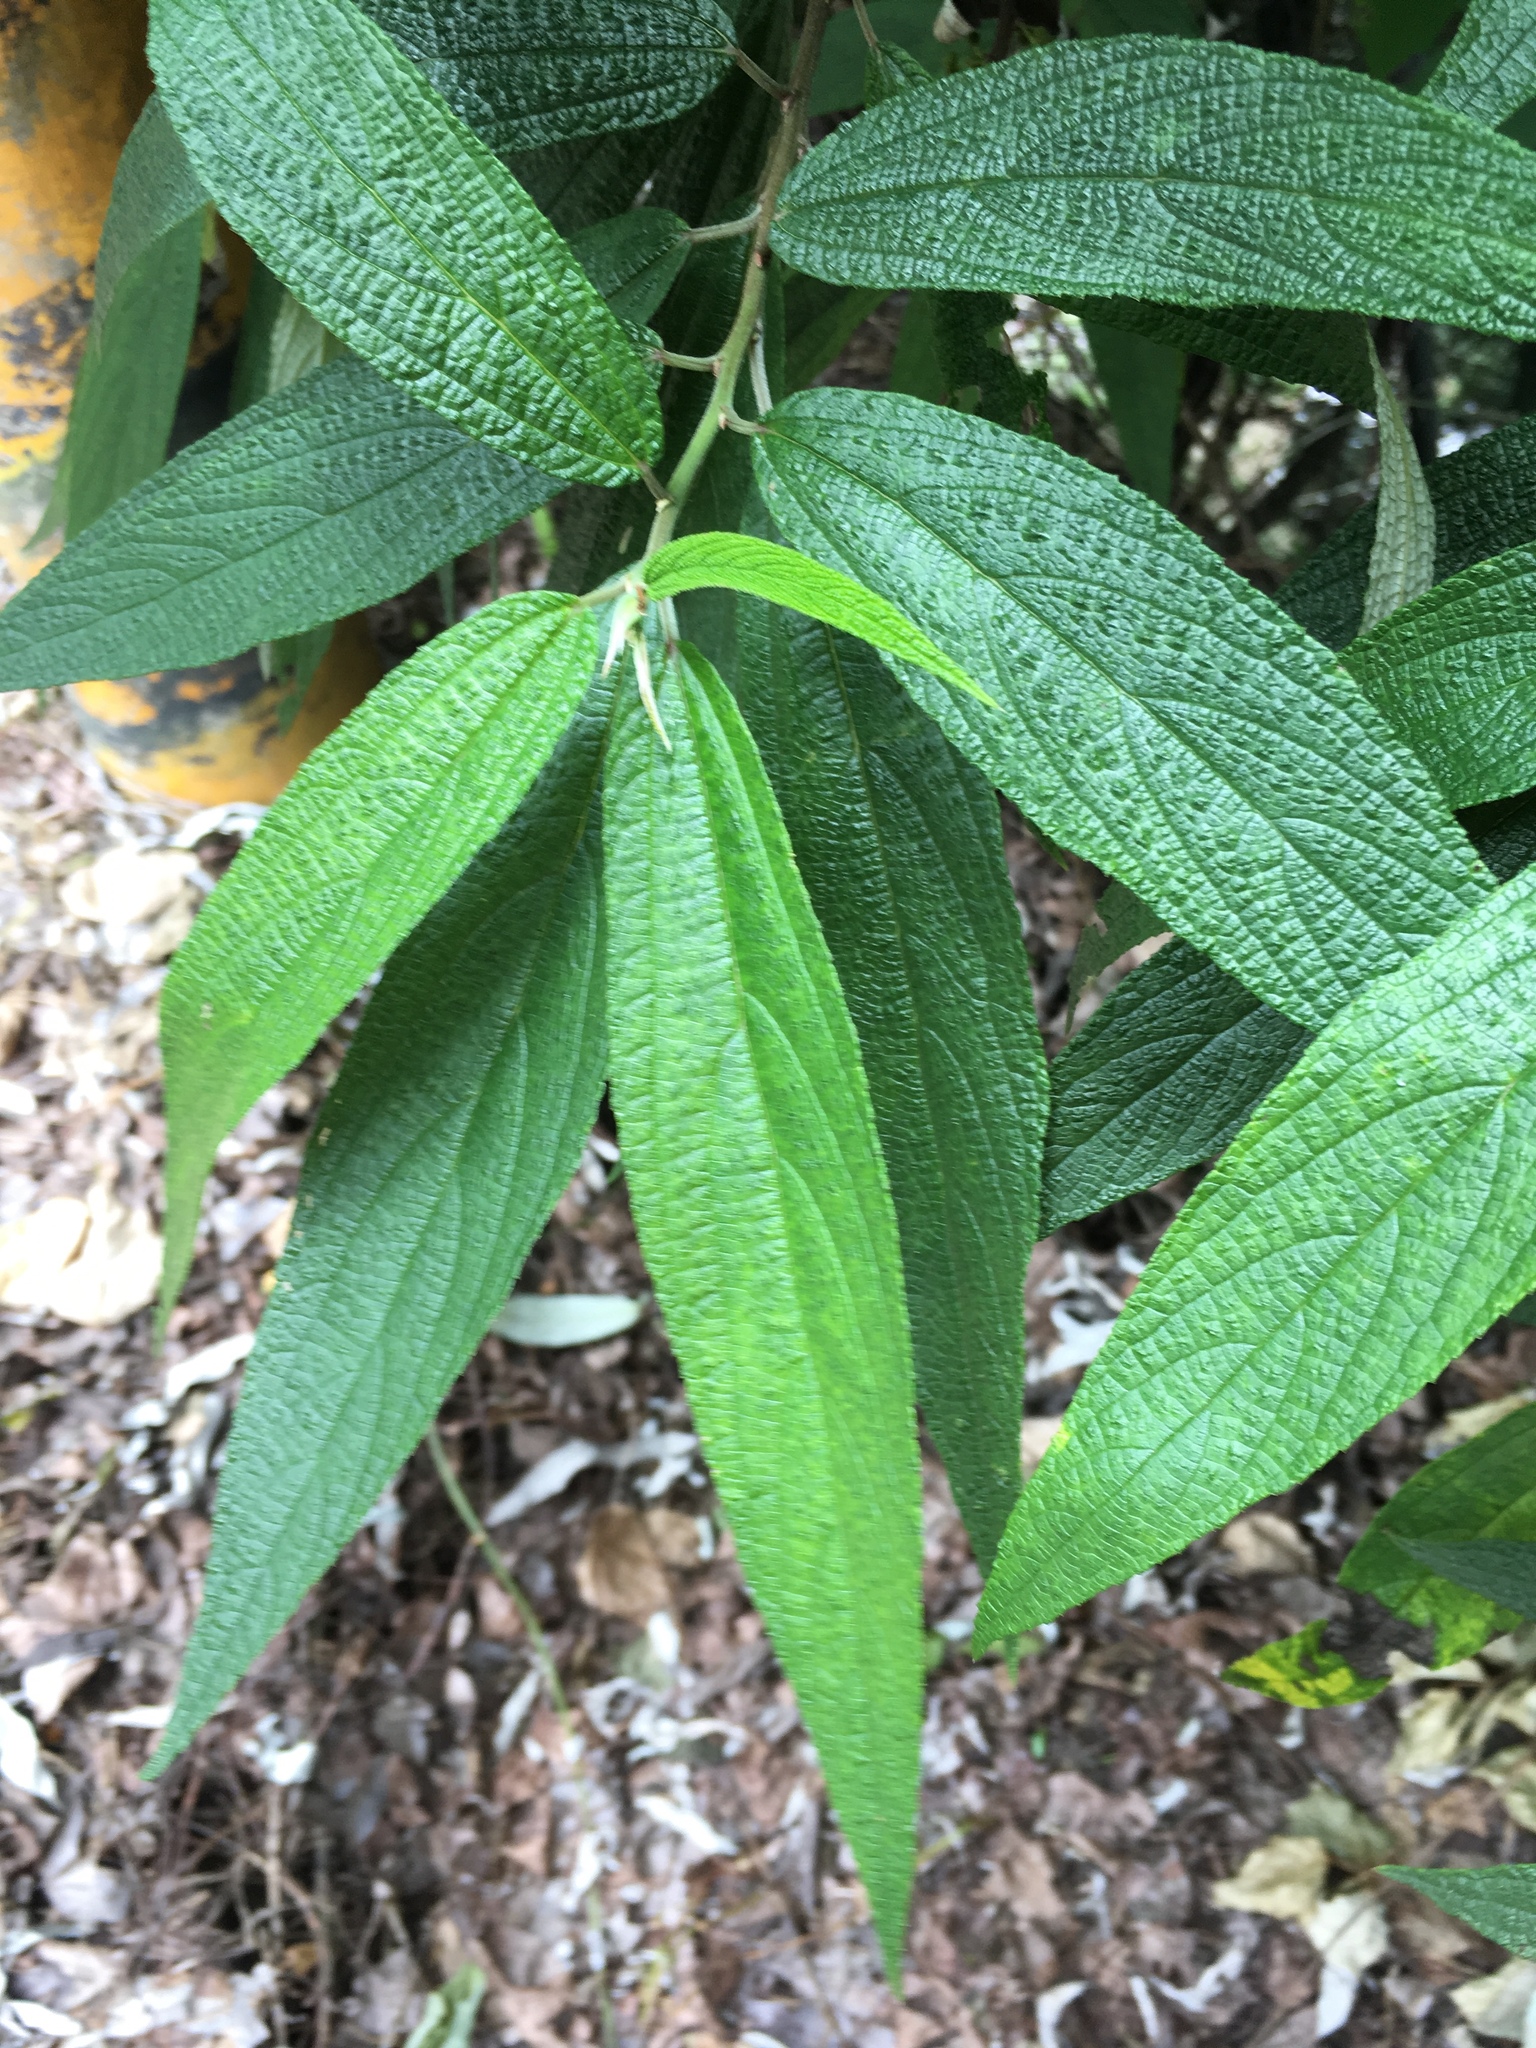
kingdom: Plantae
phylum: Tracheophyta
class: Magnoliopsida
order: Rosales
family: Urticaceae
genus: Debregeasia
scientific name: Debregeasia orientalis
